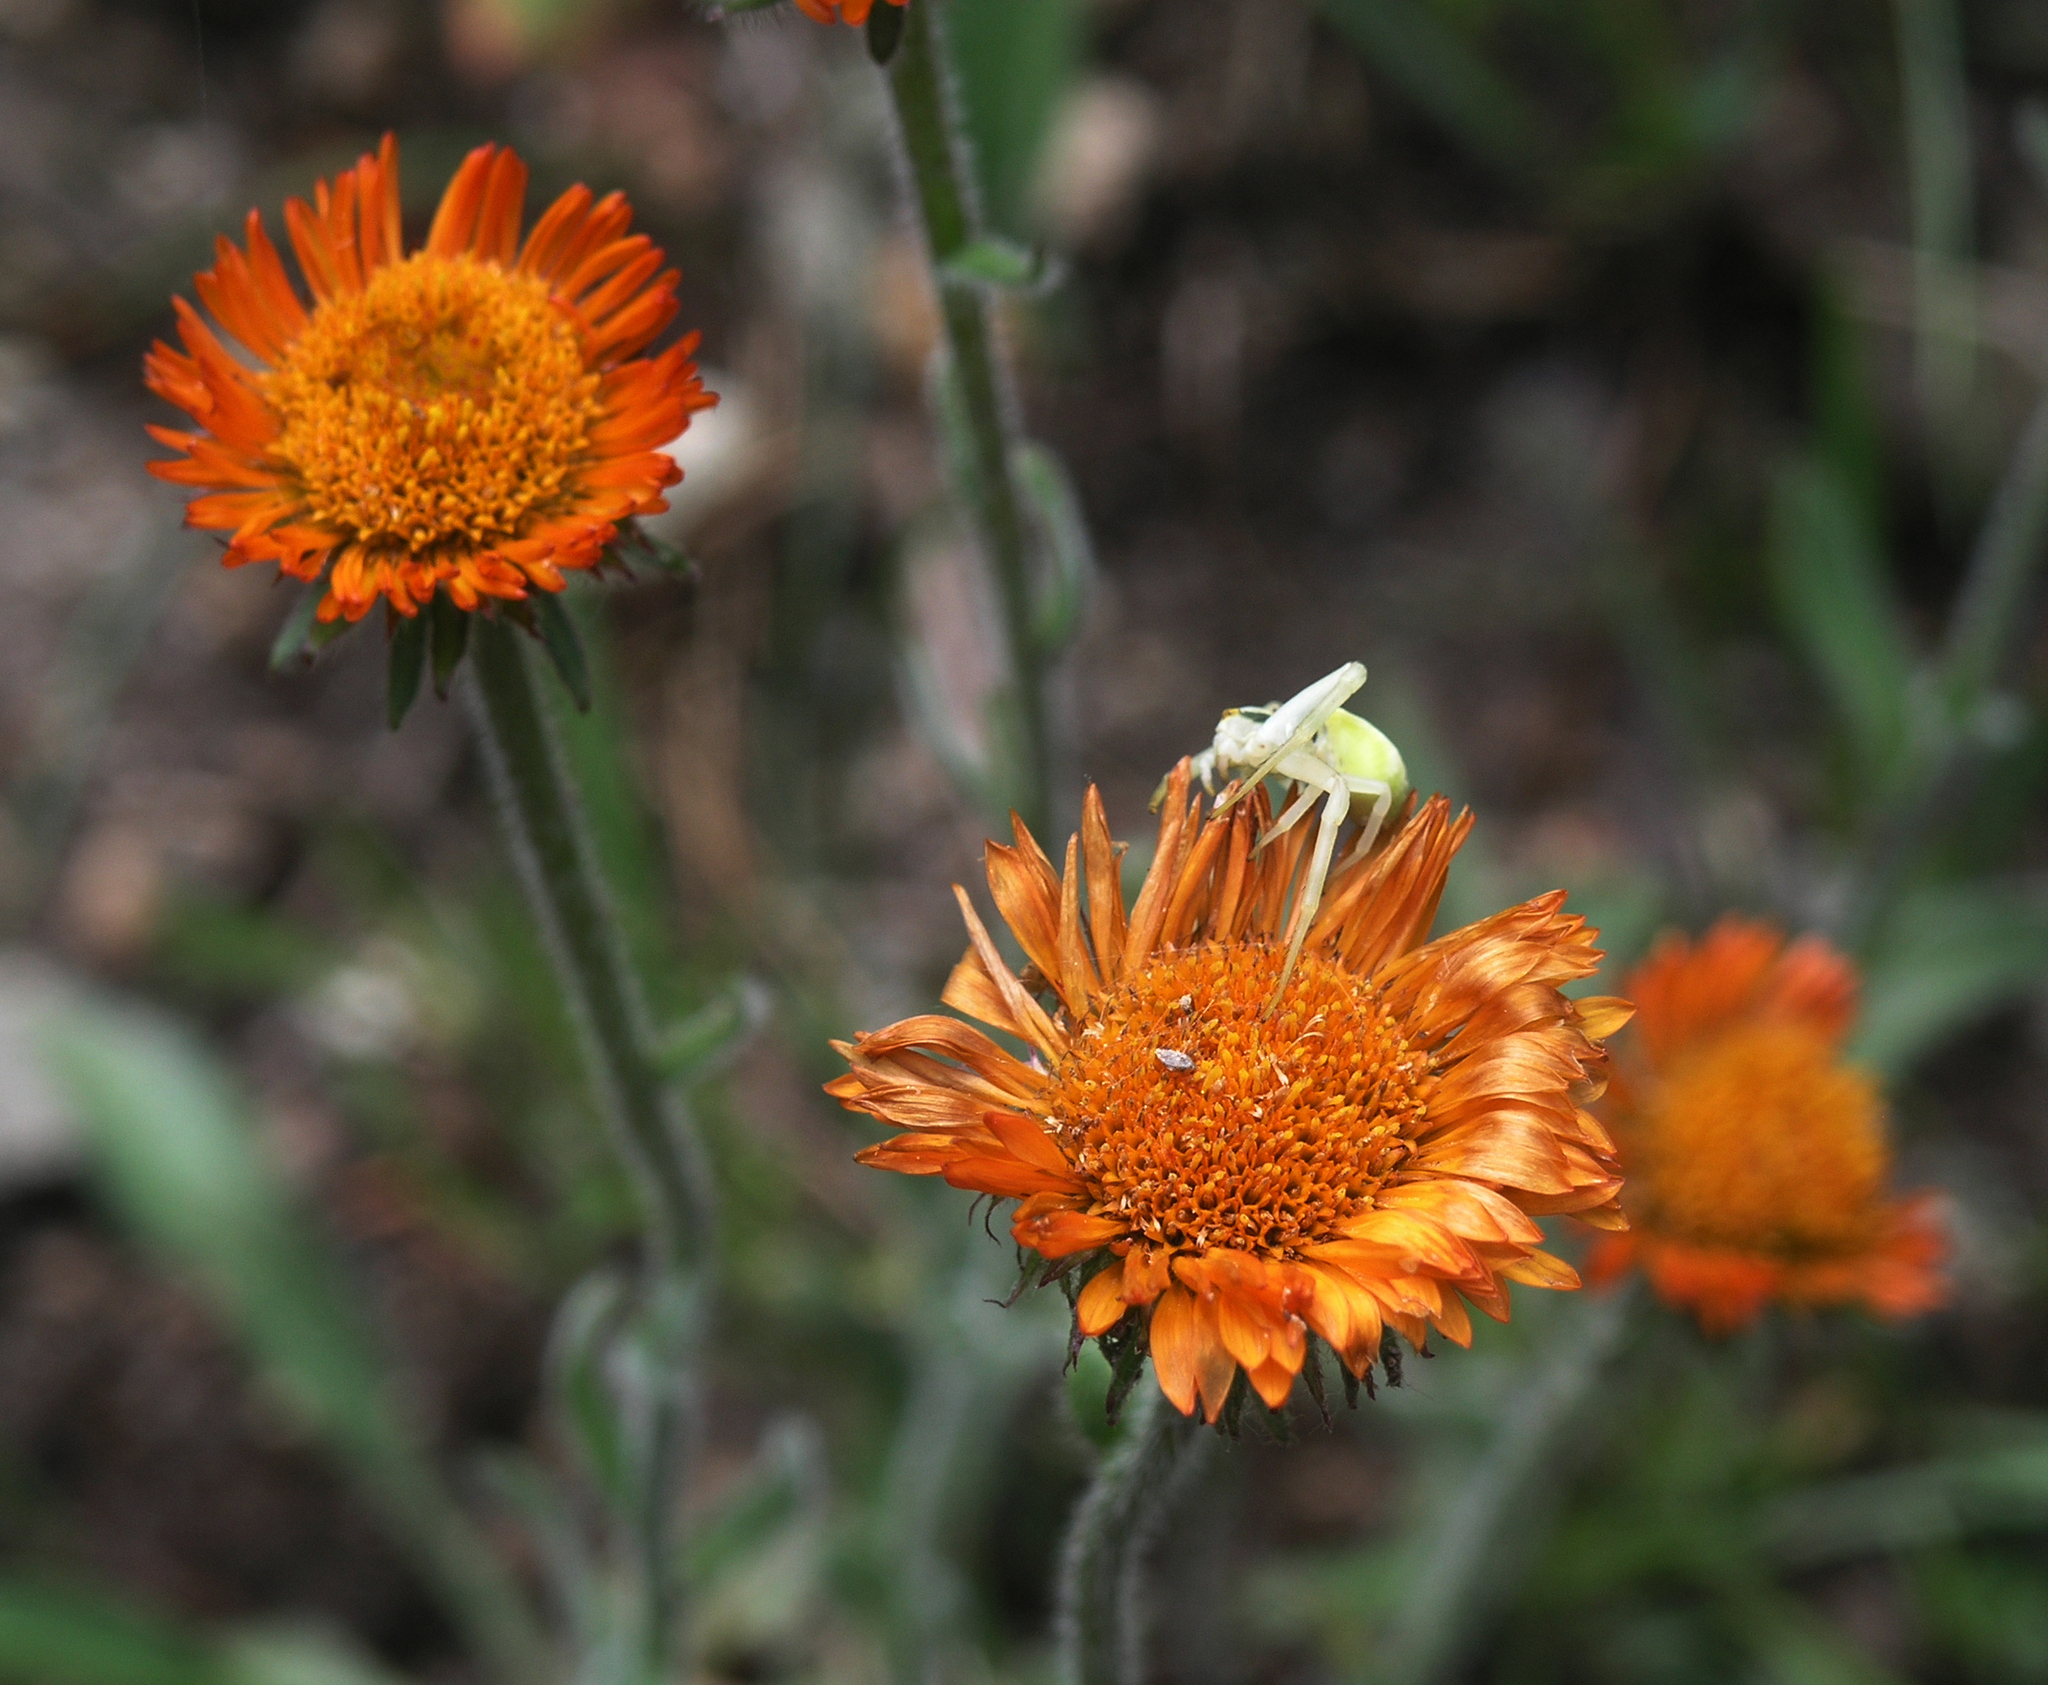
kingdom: Plantae
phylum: Tracheophyta
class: Magnoliopsida
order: Asterales
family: Asteraceae
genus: Erigeron
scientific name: Erigeron aurantiacus
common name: Orange daisy
